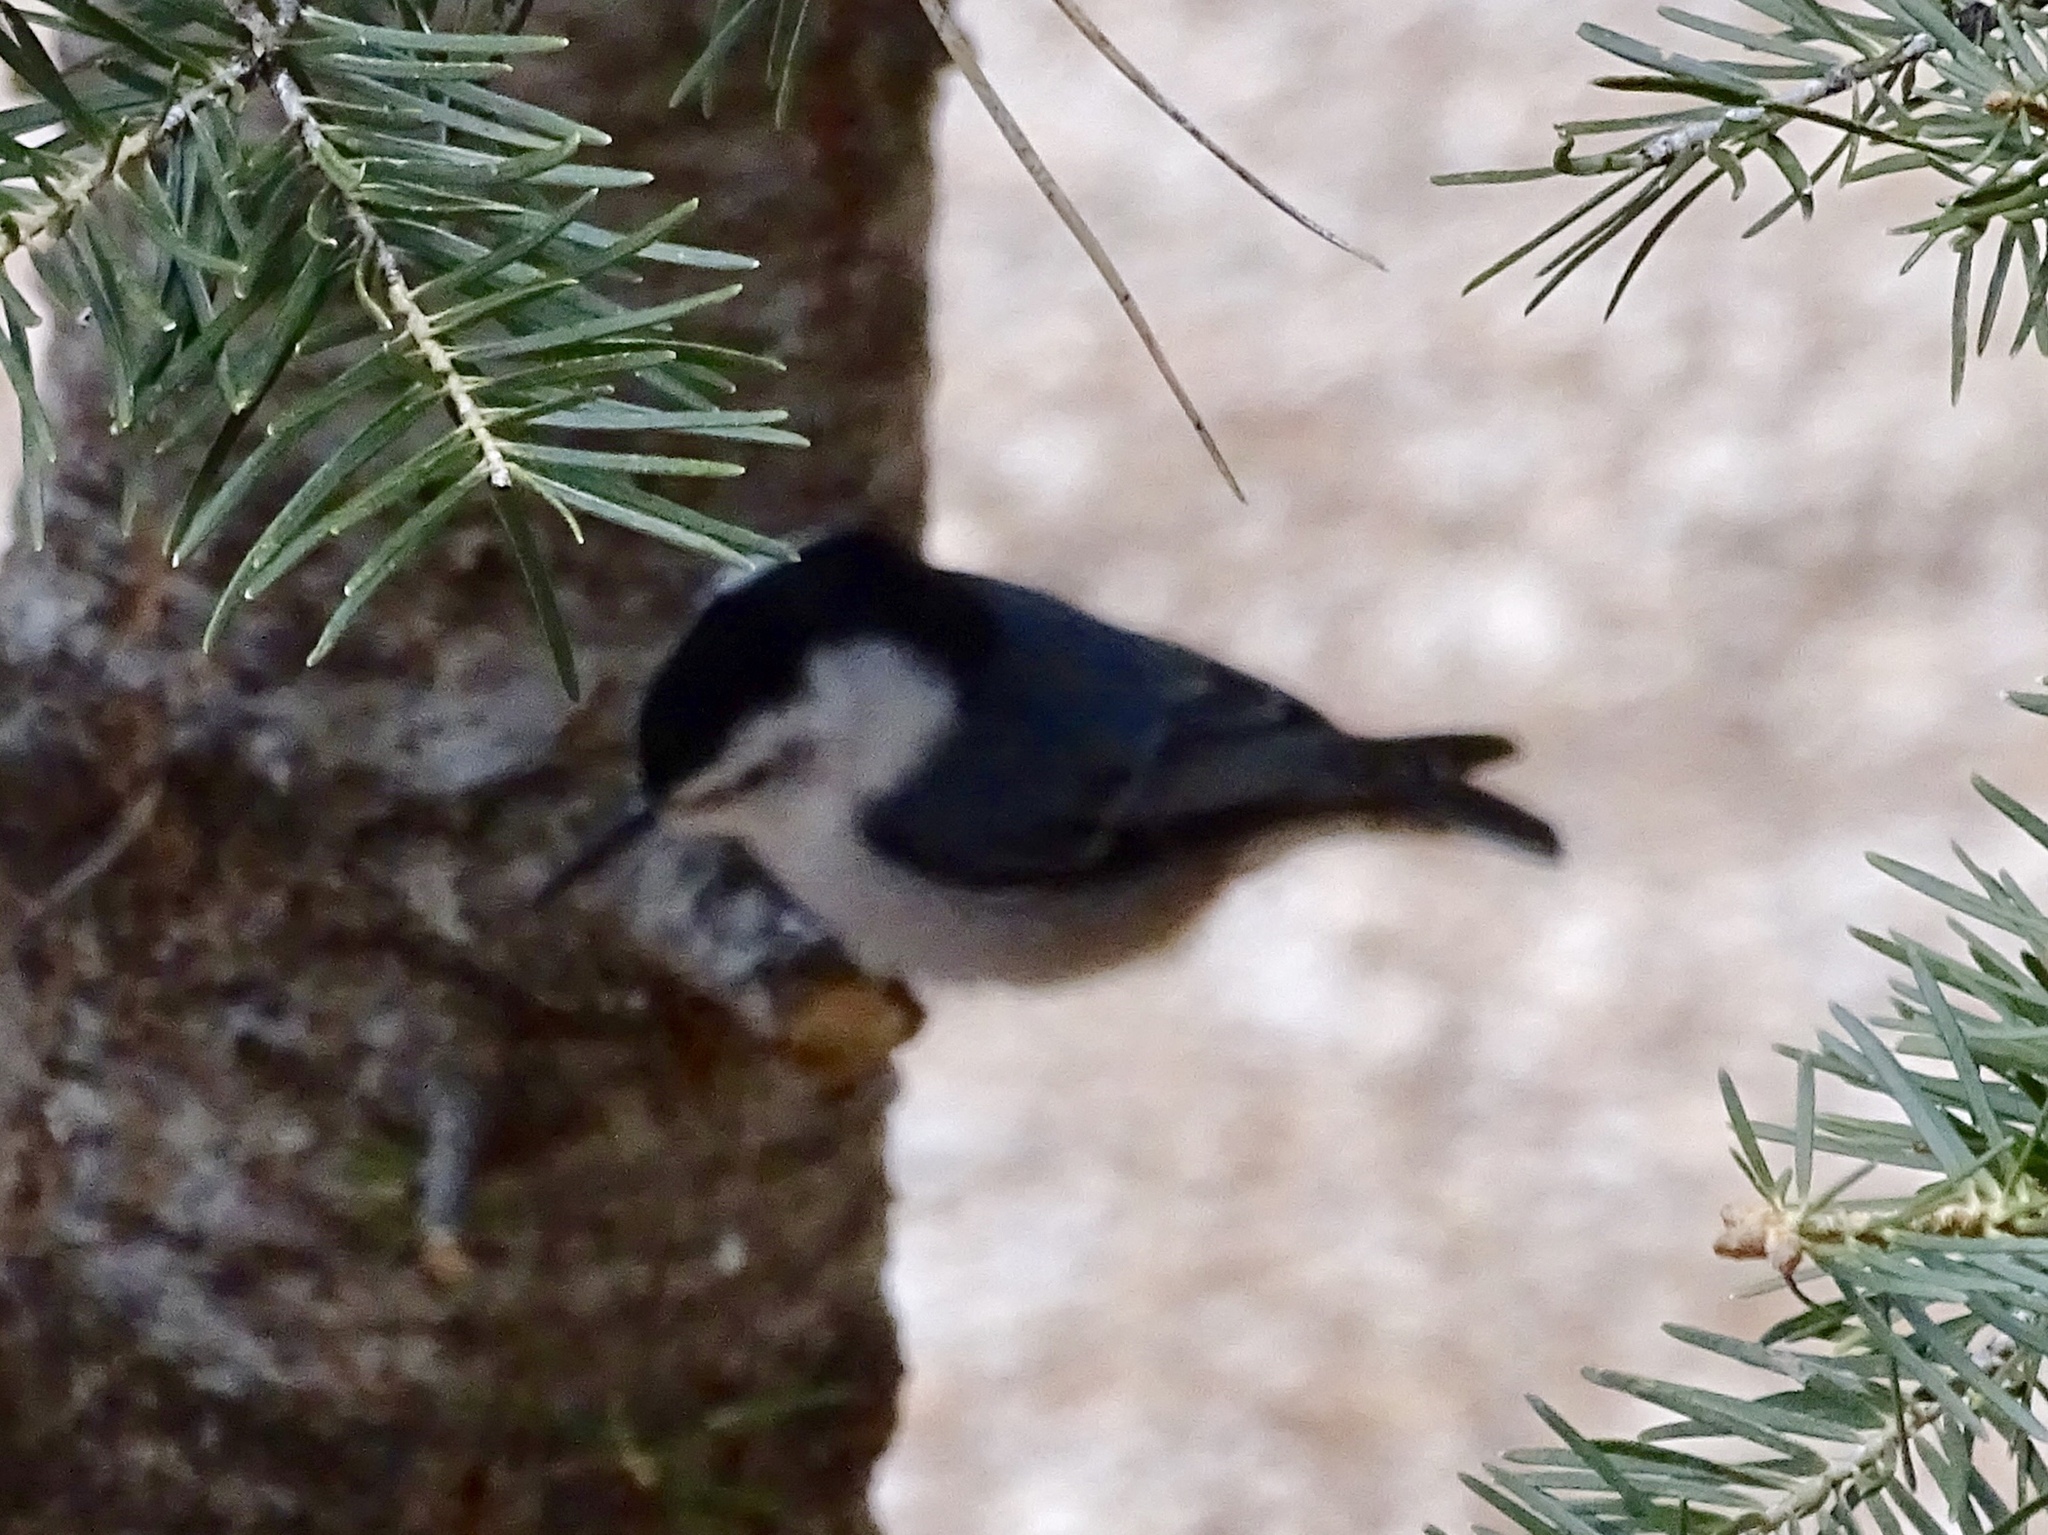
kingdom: Animalia
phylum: Chordata
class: Aves
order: Passeriformes
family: Sittidae
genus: Sitta
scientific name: Sitta carolinensis
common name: White-breasted nuthatch
